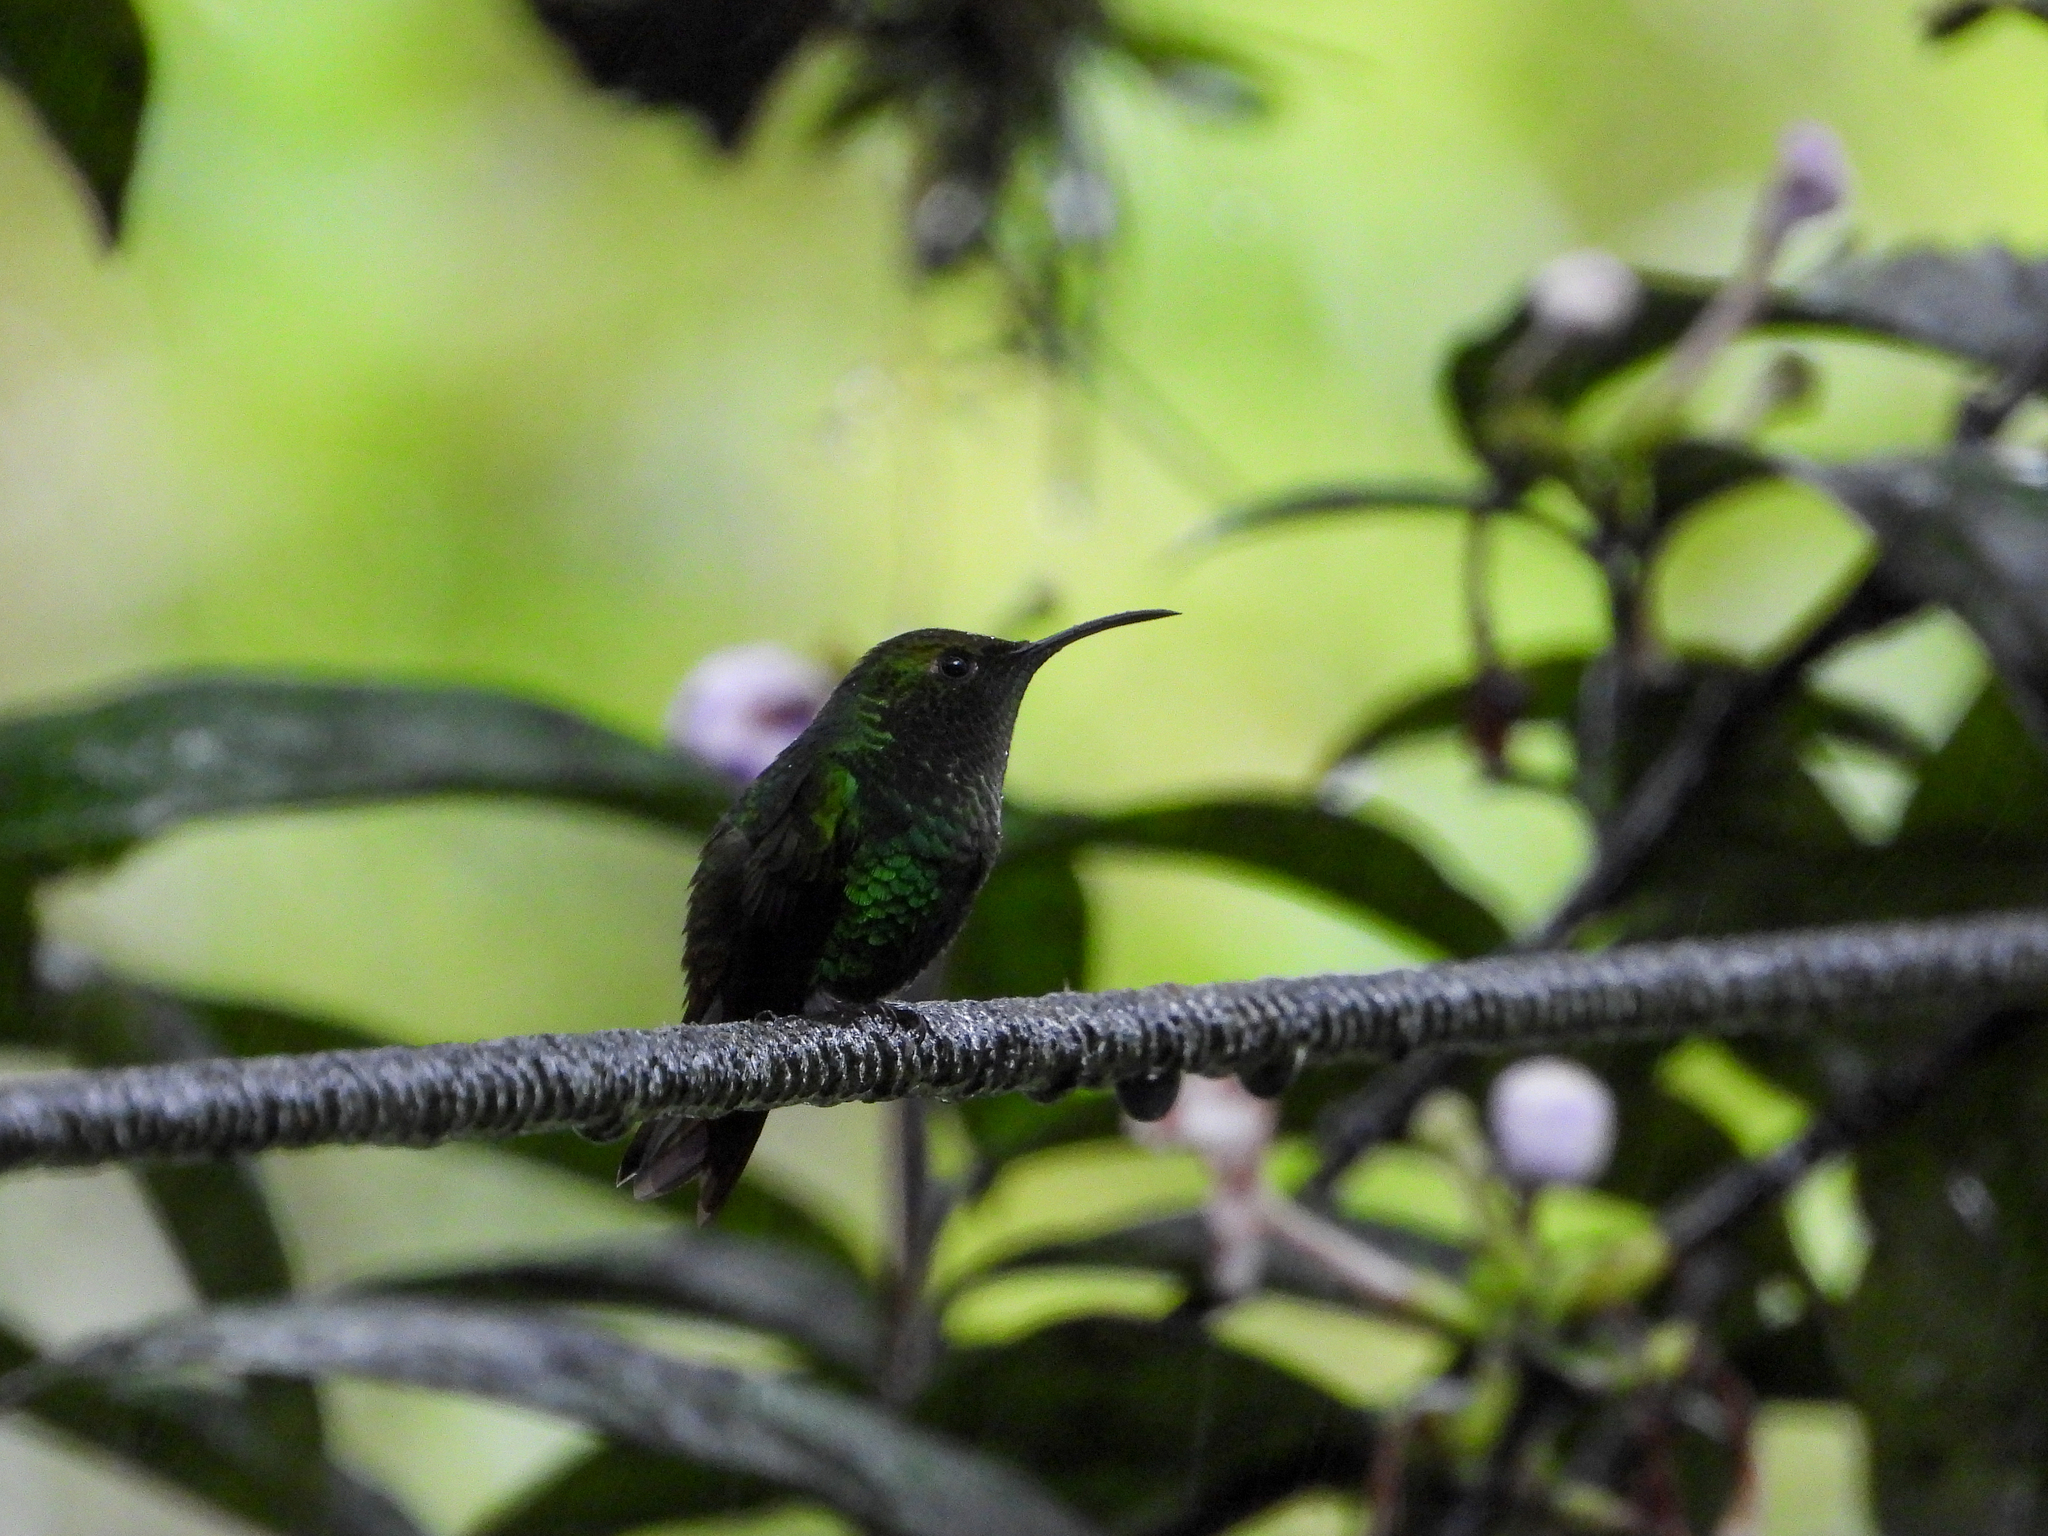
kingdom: Animalia
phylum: Chordata
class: Aves
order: Apodiformes
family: Trochilidae
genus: Microchera
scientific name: Microchera cupreiceps
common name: Coppery-headed emerald
